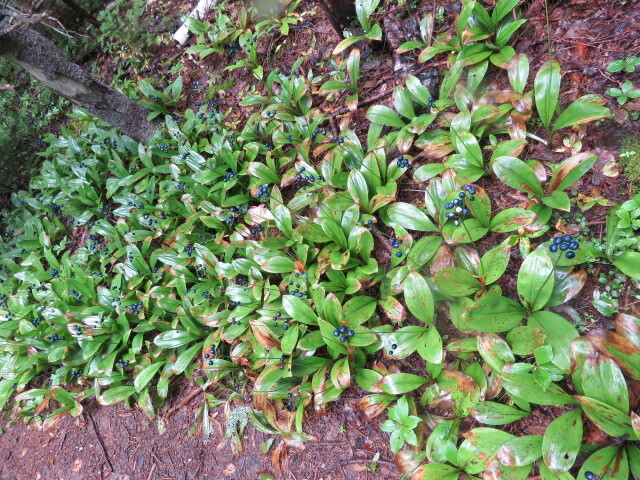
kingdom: Plantae
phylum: Tracheophyta
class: Liliopsida
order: Liliales
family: Liliaceae
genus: Clintonia
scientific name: Clintonia borealis
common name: Yellow clintonia
